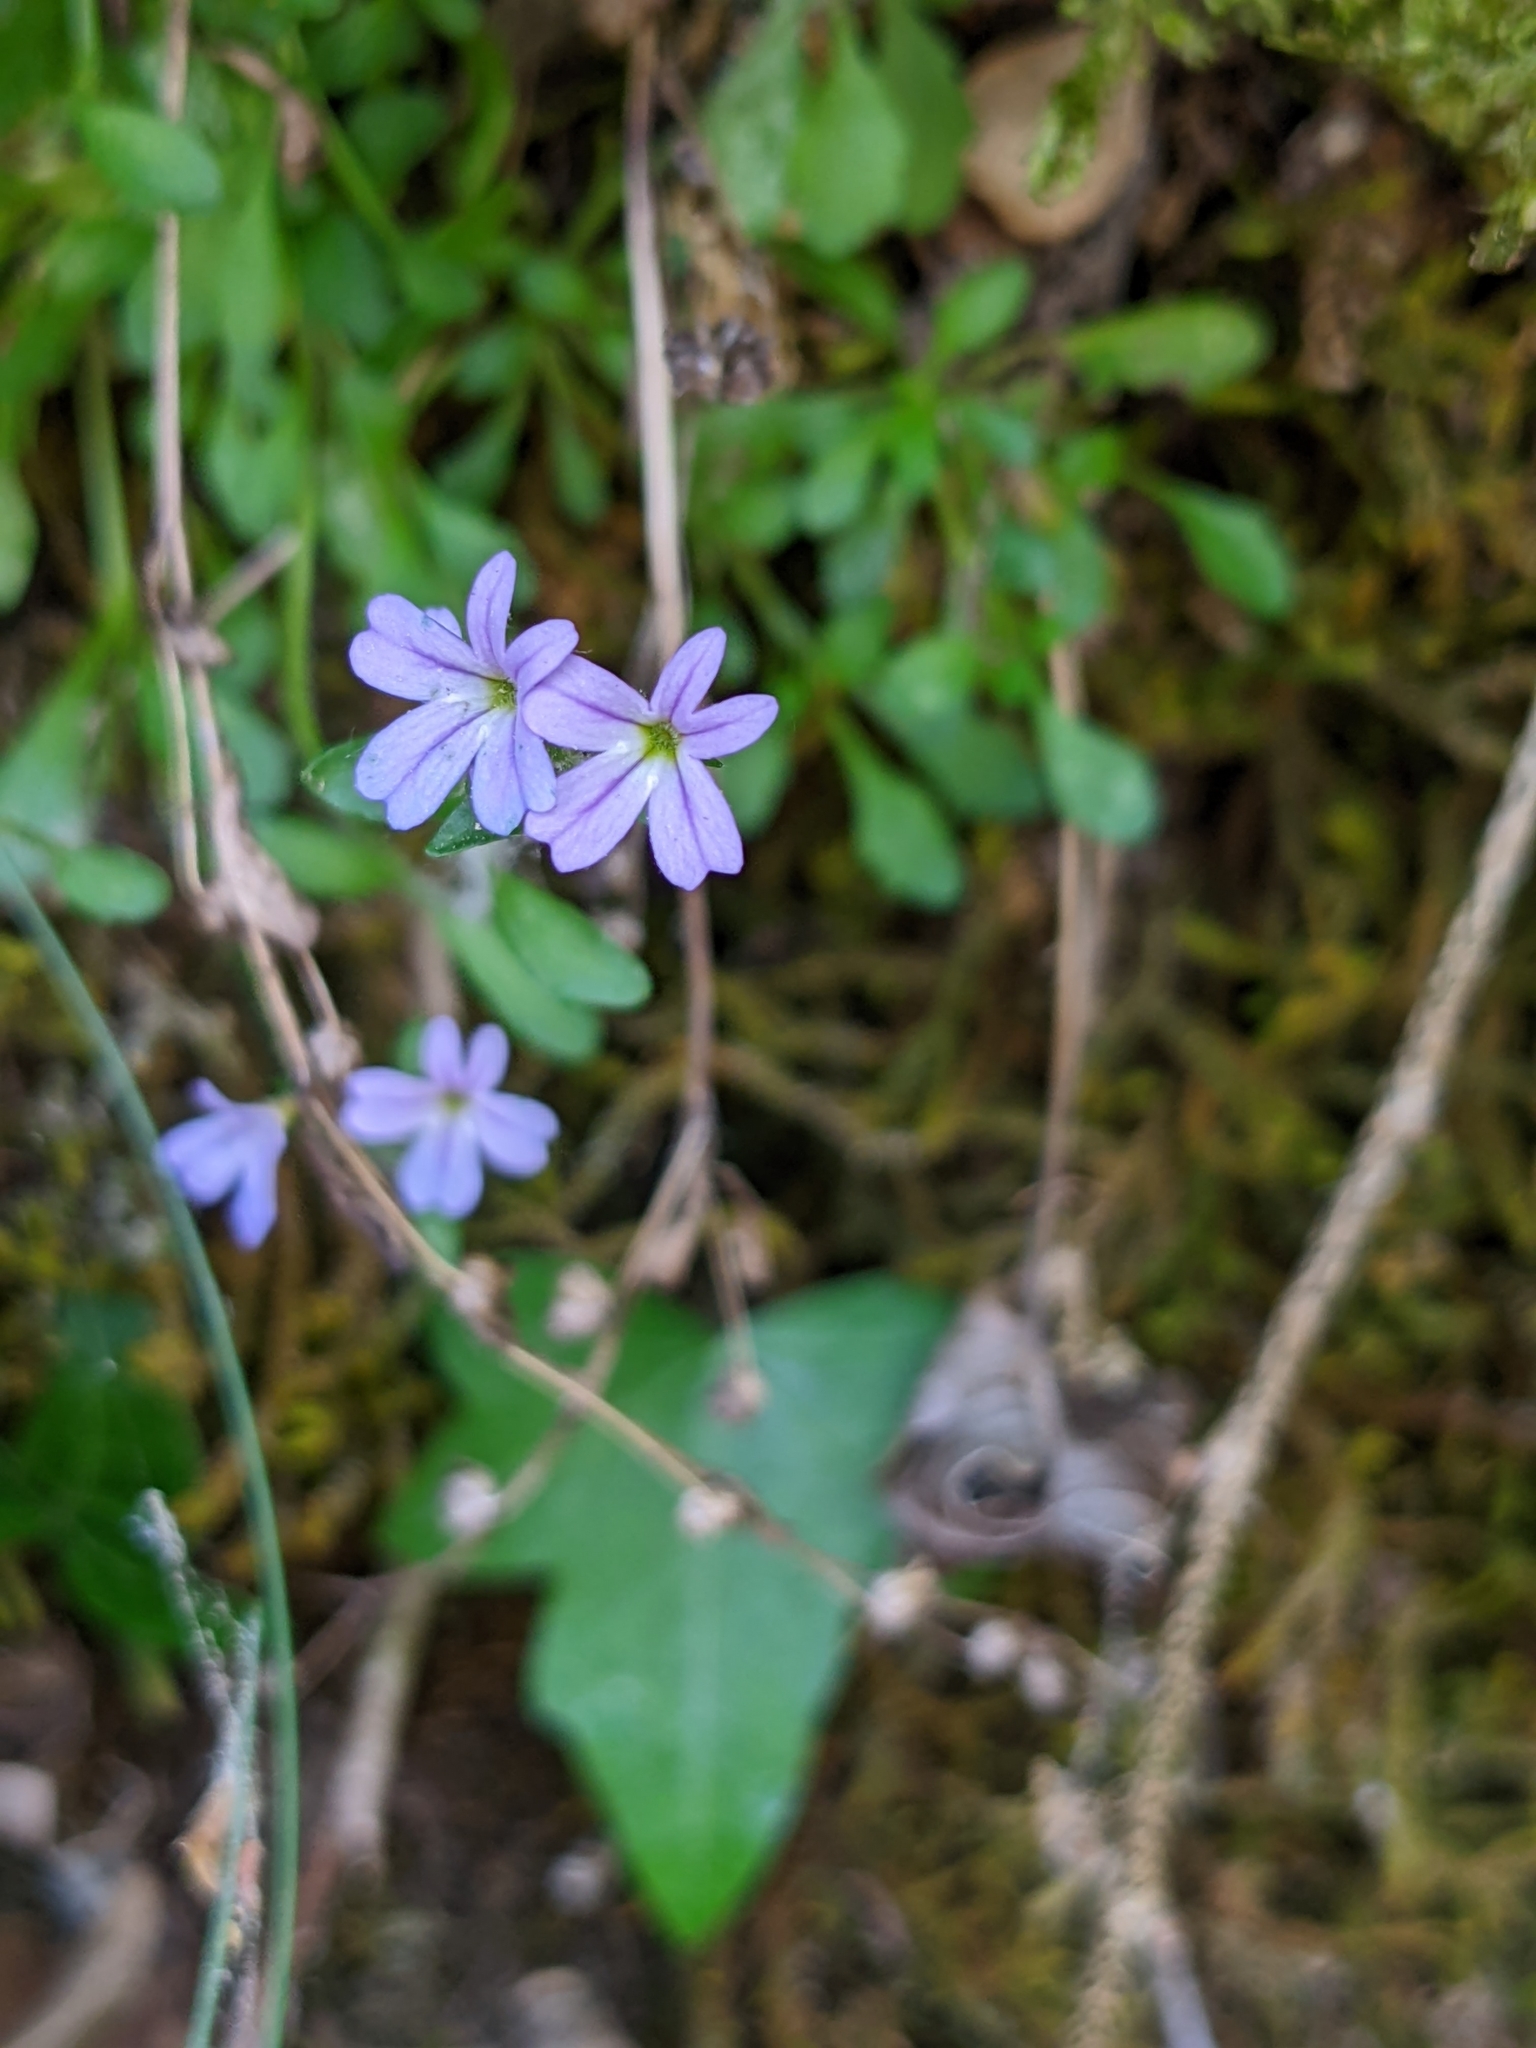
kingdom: Plantae
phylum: Tracheophyta
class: Magnoliopsida
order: Lamiales
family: Plantaginaceae
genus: Erinus
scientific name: Erinus alpinus
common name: Fairy foxglove
